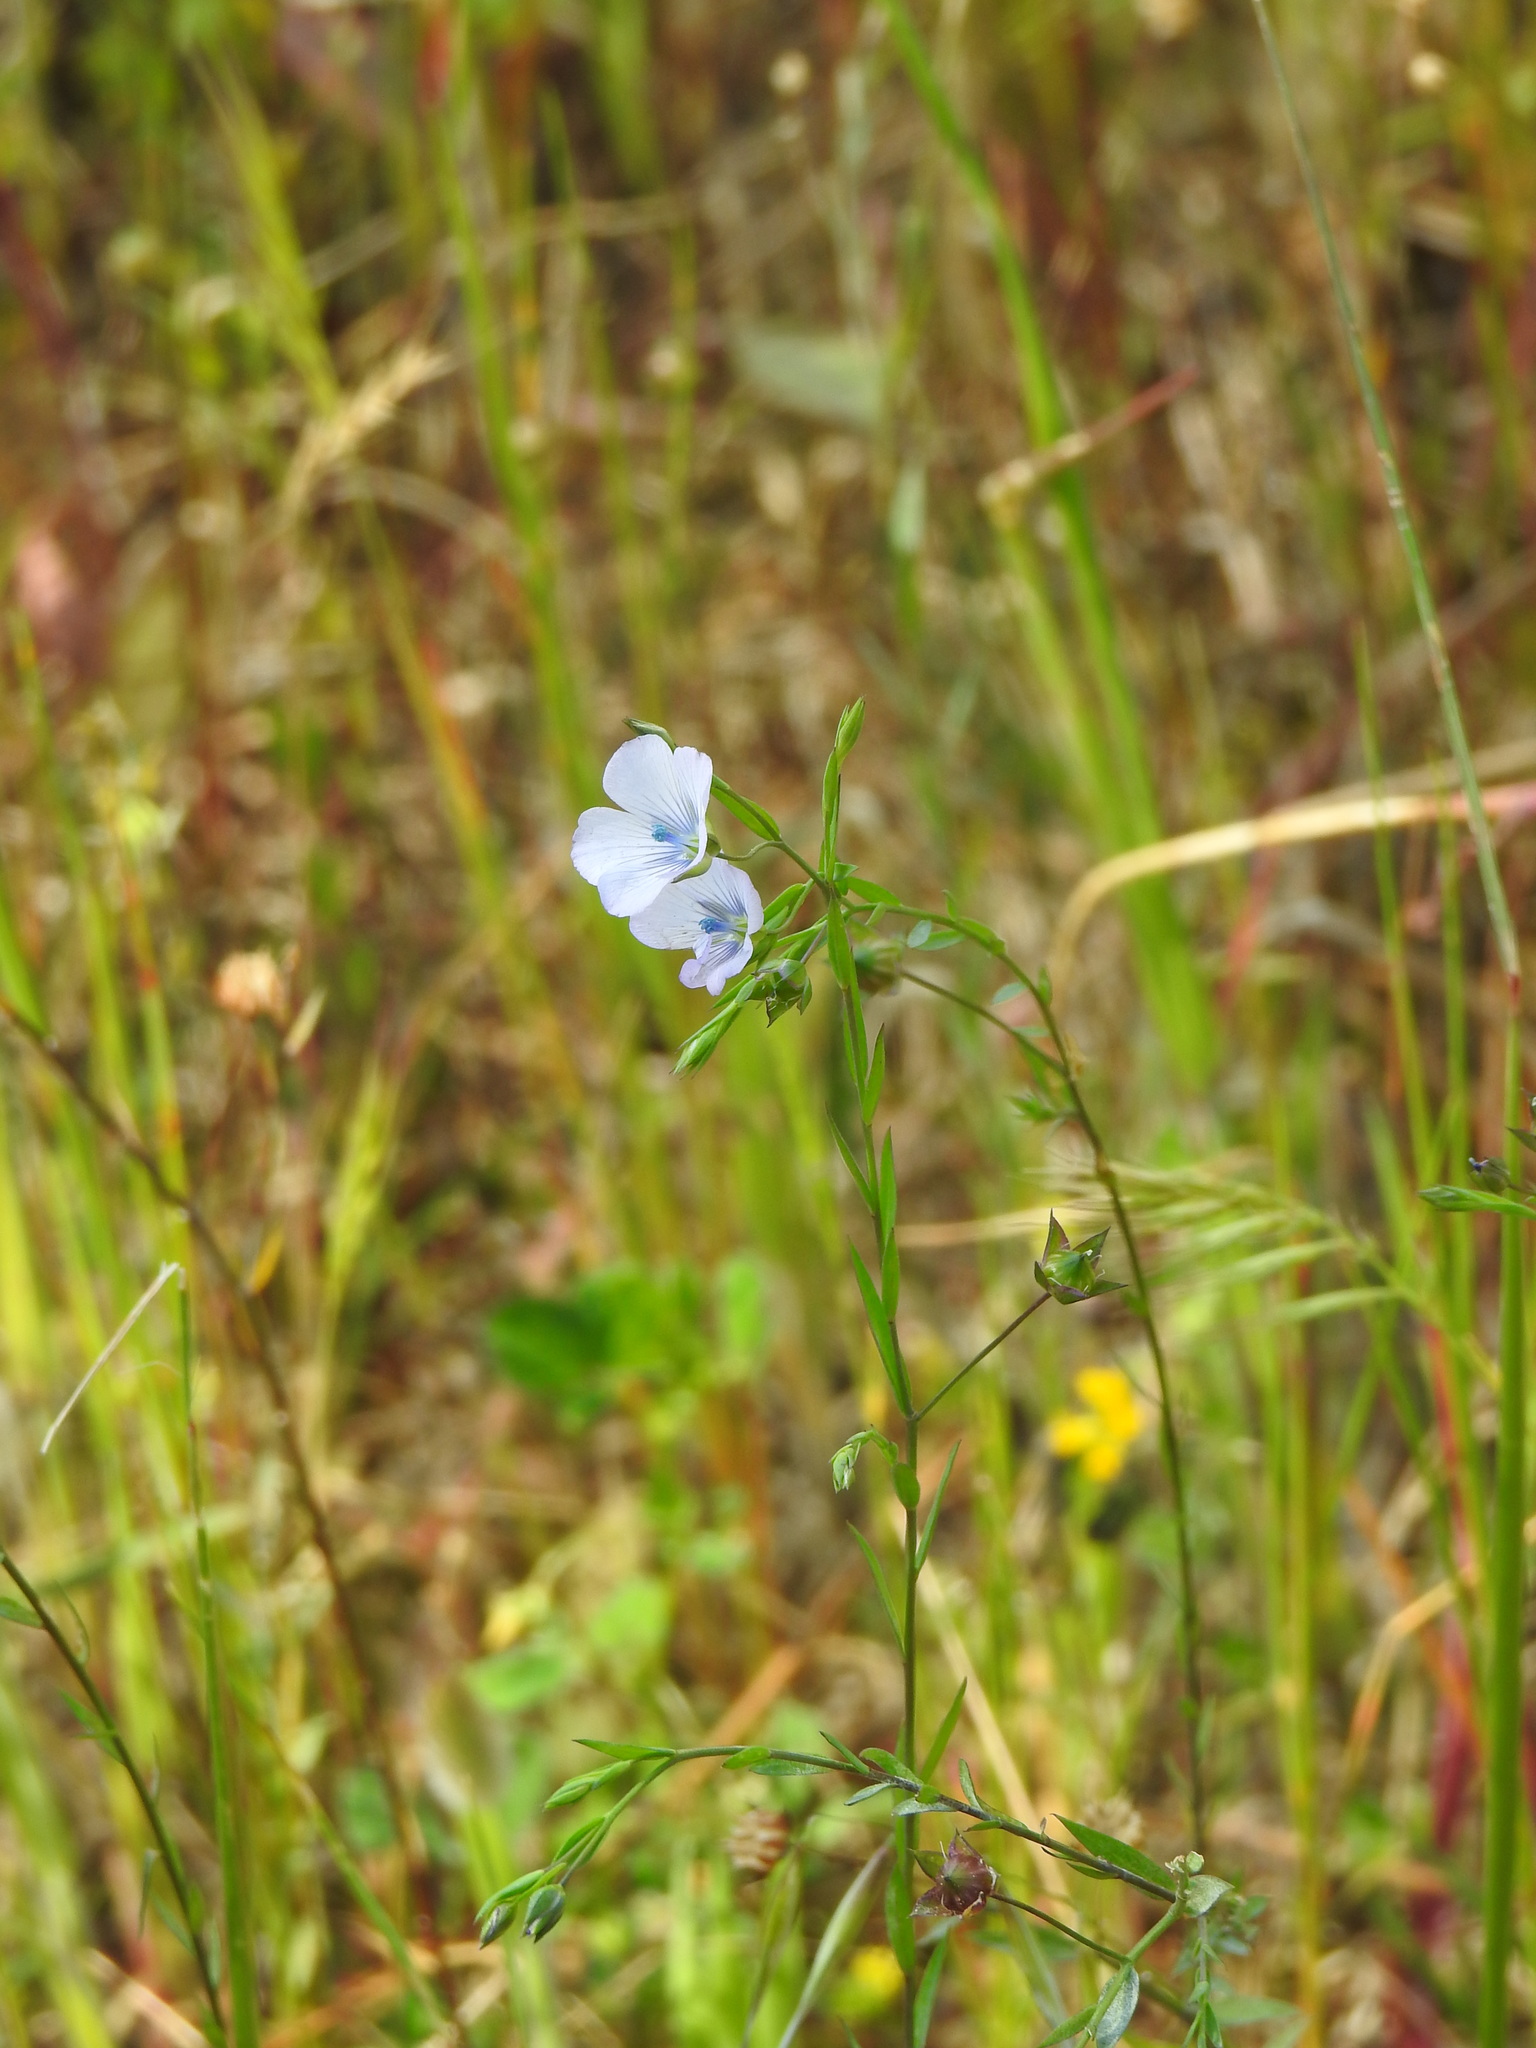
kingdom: Plantae
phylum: Tracheophyta
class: Magnoliopsida
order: Malpighiales
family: Linaceae
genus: Linum
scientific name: Linum bienne
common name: Pale flax
